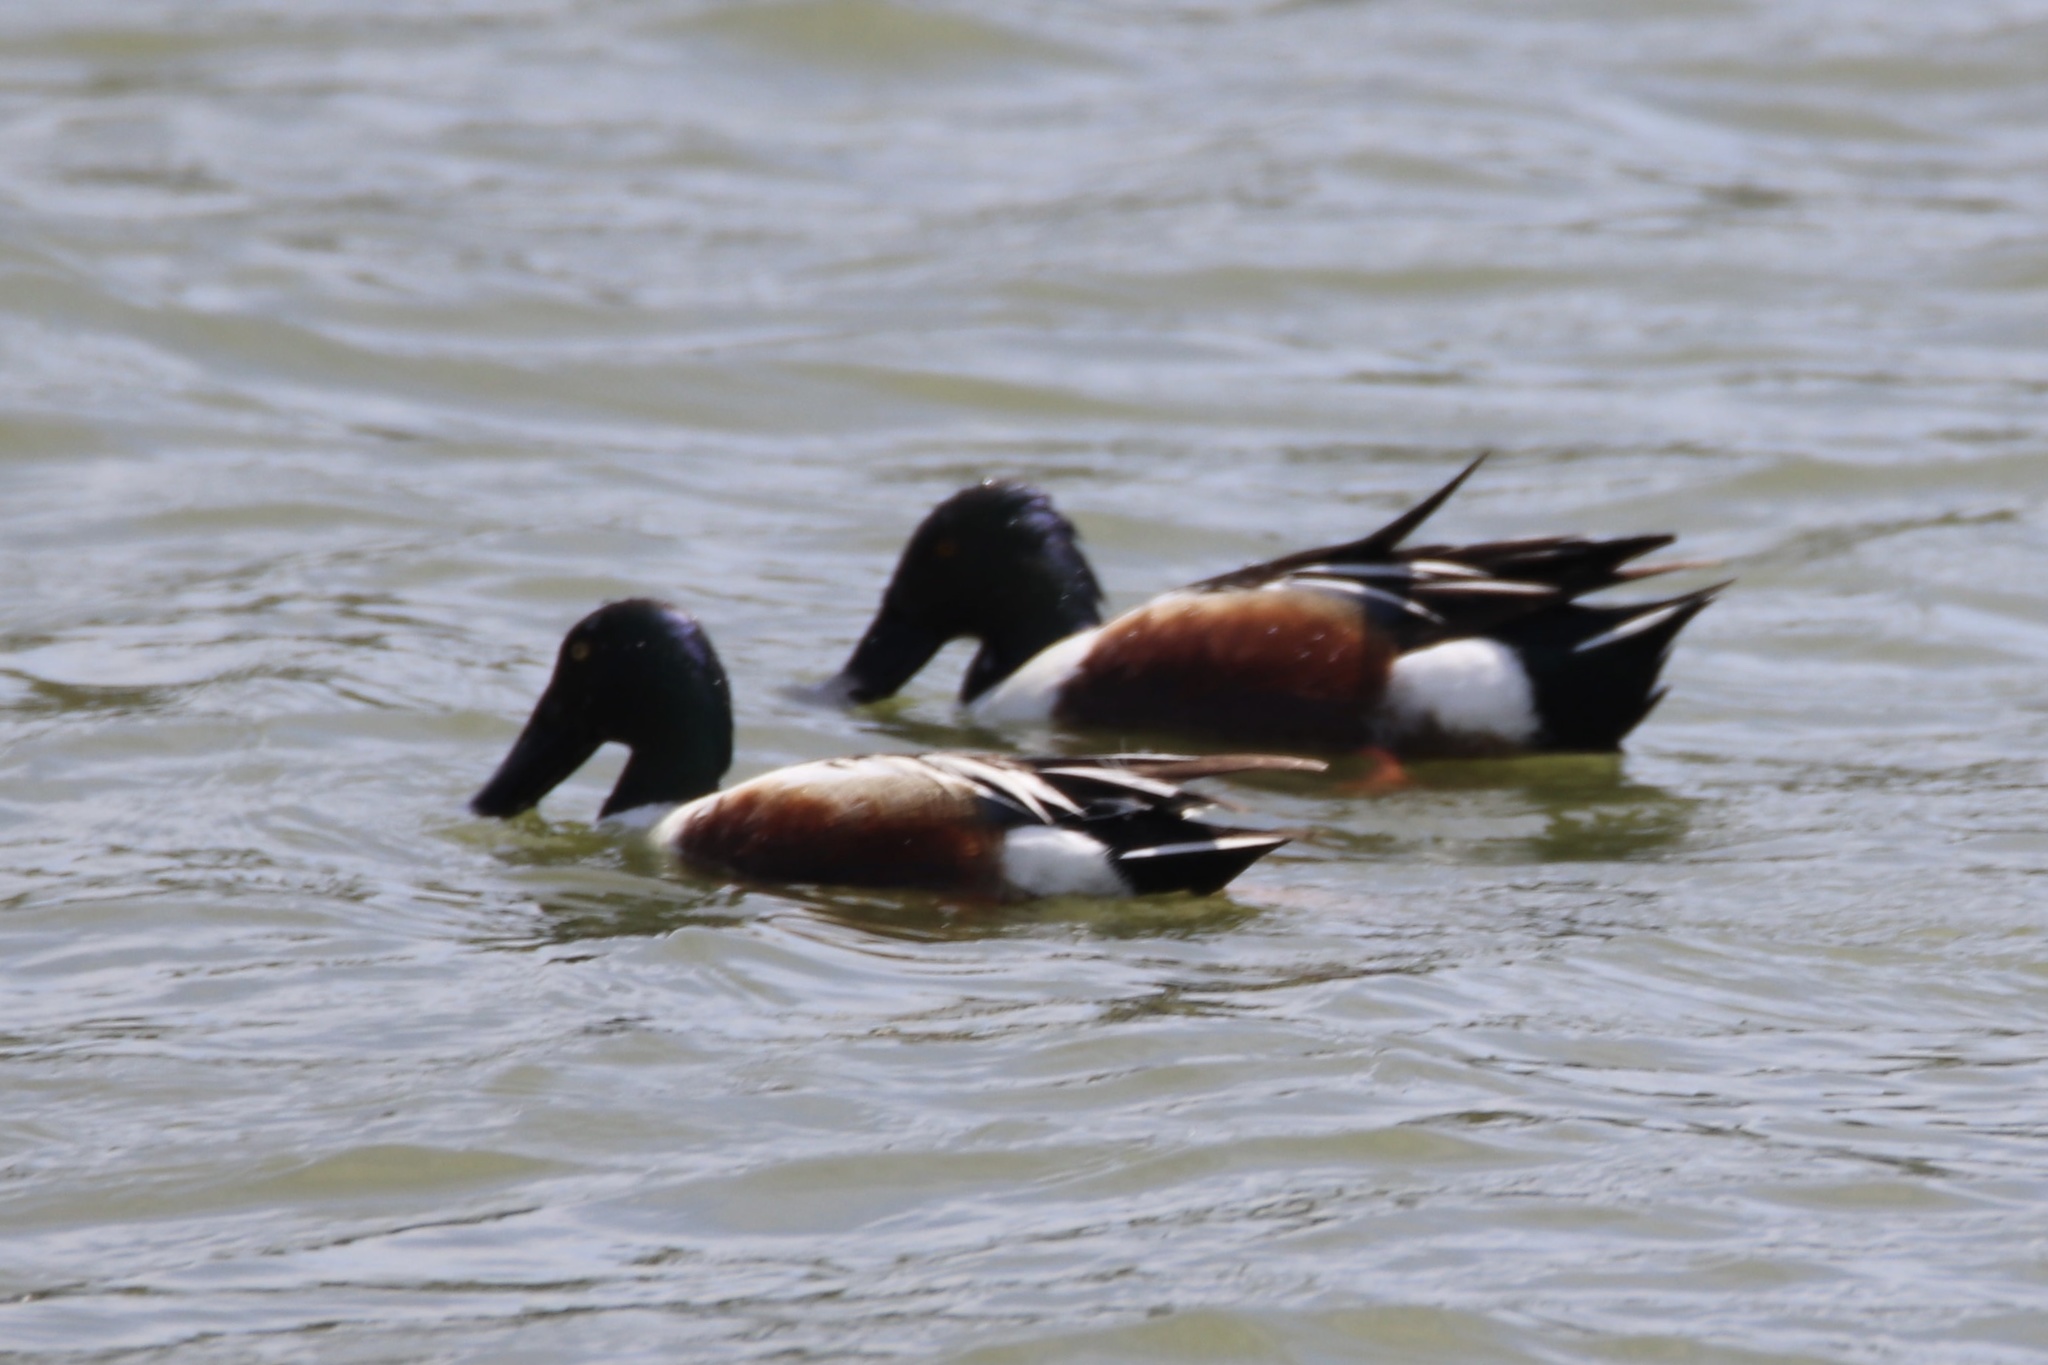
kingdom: Animalia
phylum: Chordata
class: Aves
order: Anseriformes
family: Anatidae
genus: Spatula
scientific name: Spatula clypeata
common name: Northern shoveler
